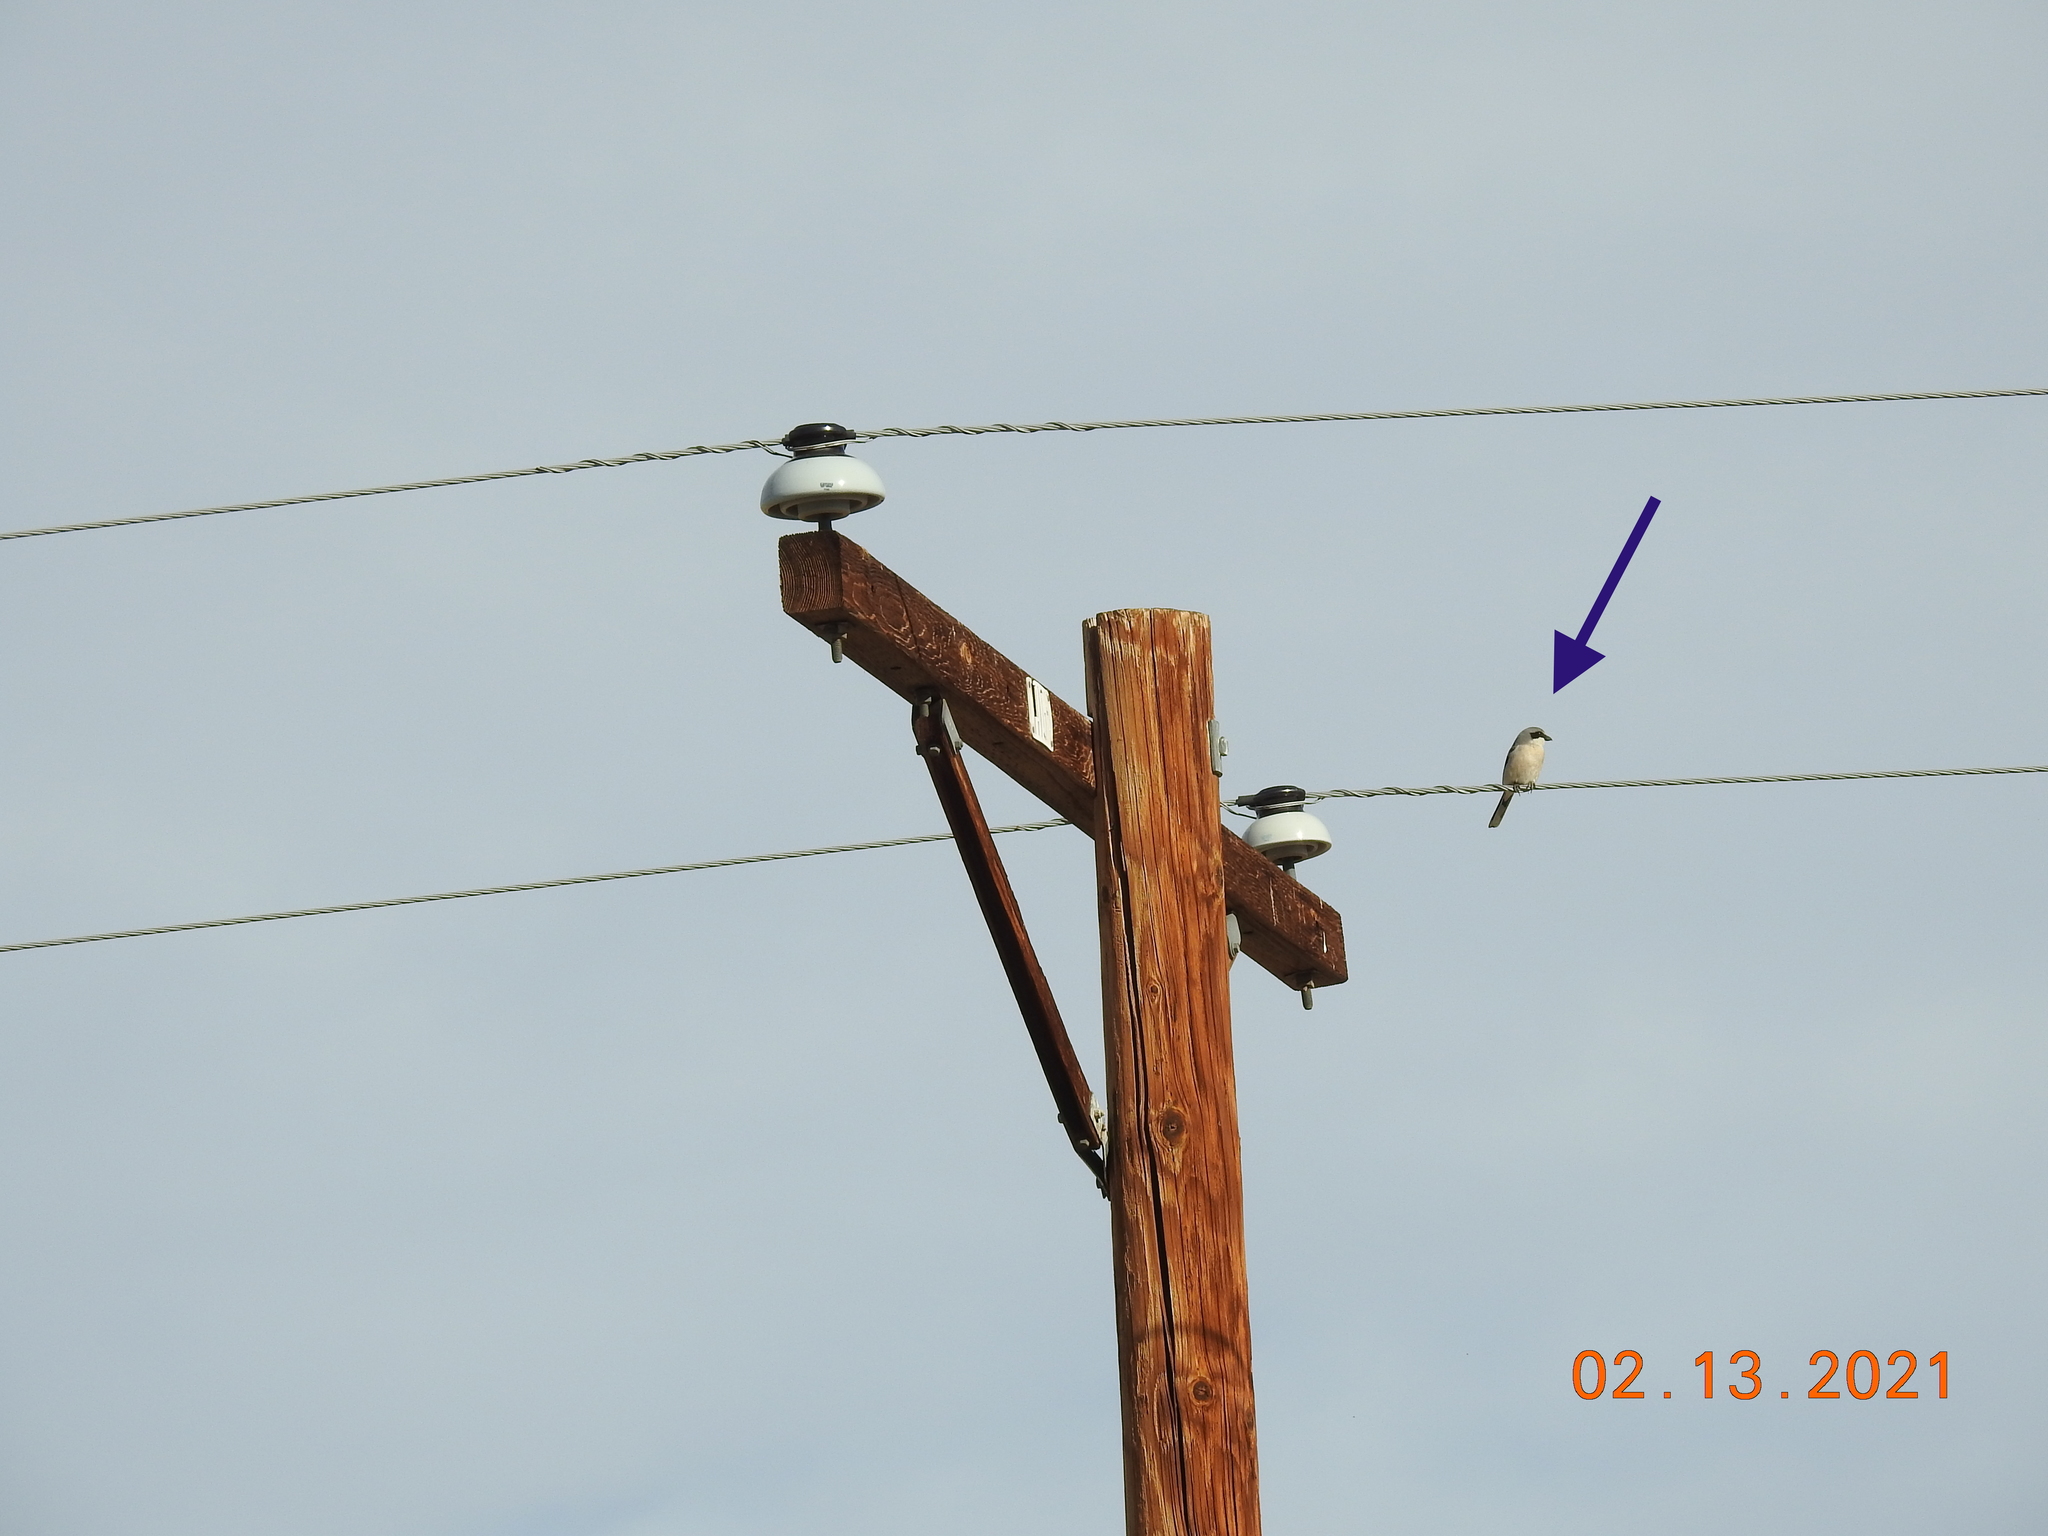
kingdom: Animalia
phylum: Chordata
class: Aves
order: Passeriformes
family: Laniidae
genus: Lanius
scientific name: Lanius ludovicianus
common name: Loggerhead shrike
